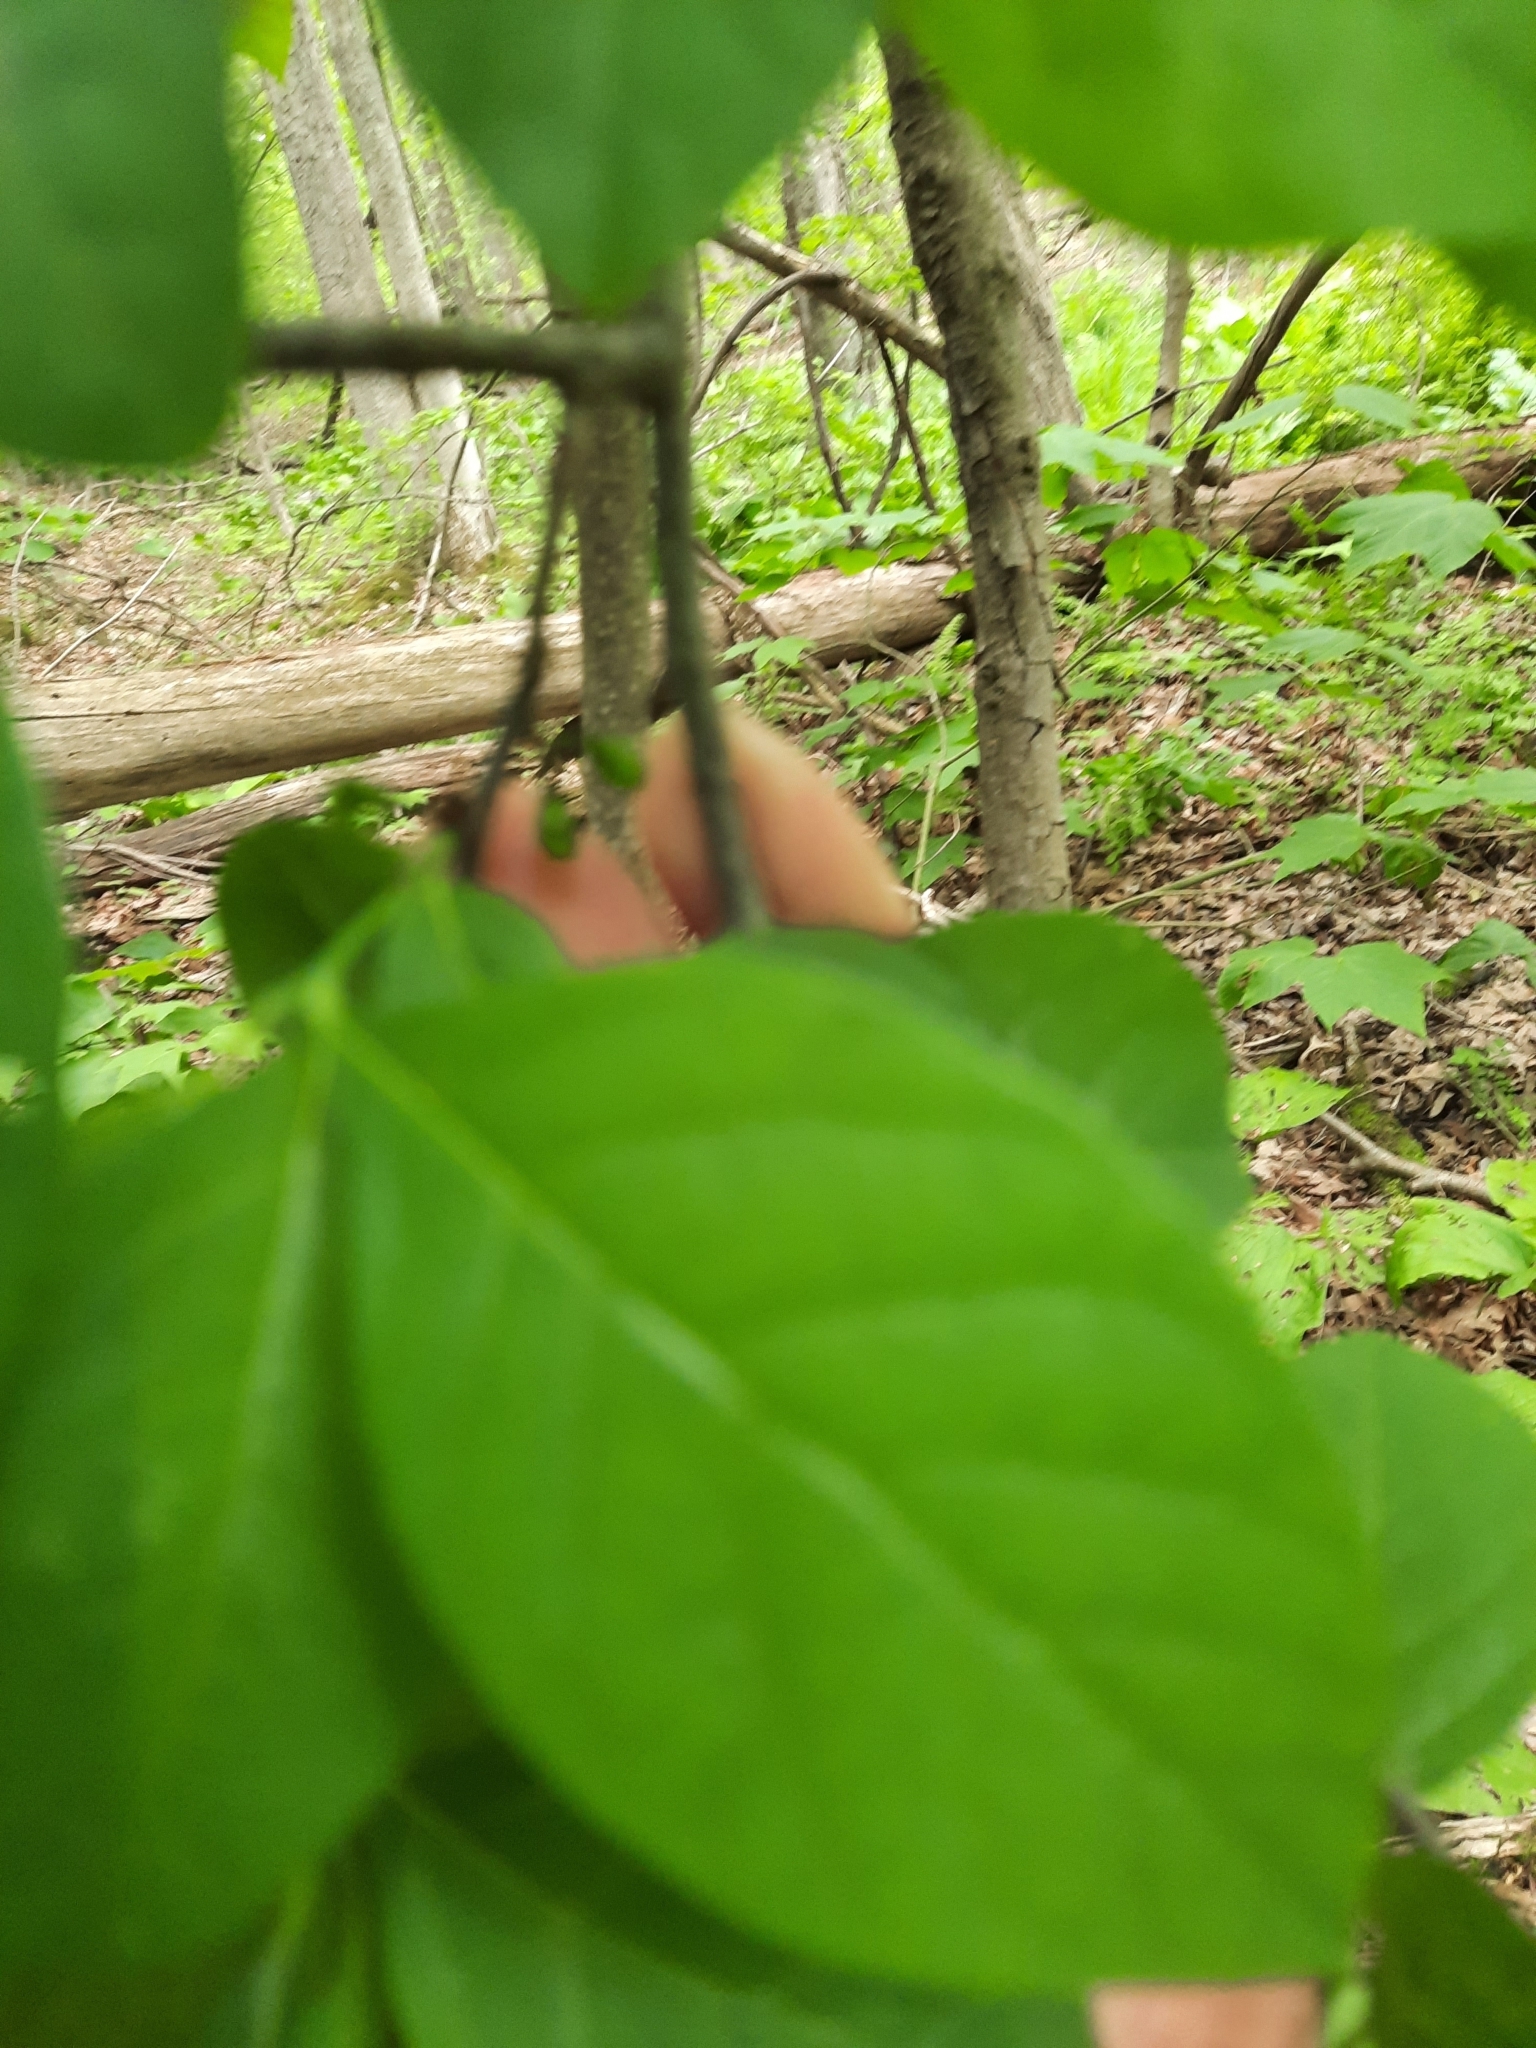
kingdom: Plantae
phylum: Tracheophyta
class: Magnoliopsida
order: Laurales
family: Lauraceae
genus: Lindera
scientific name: Lindera benzoin
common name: Spicebush
